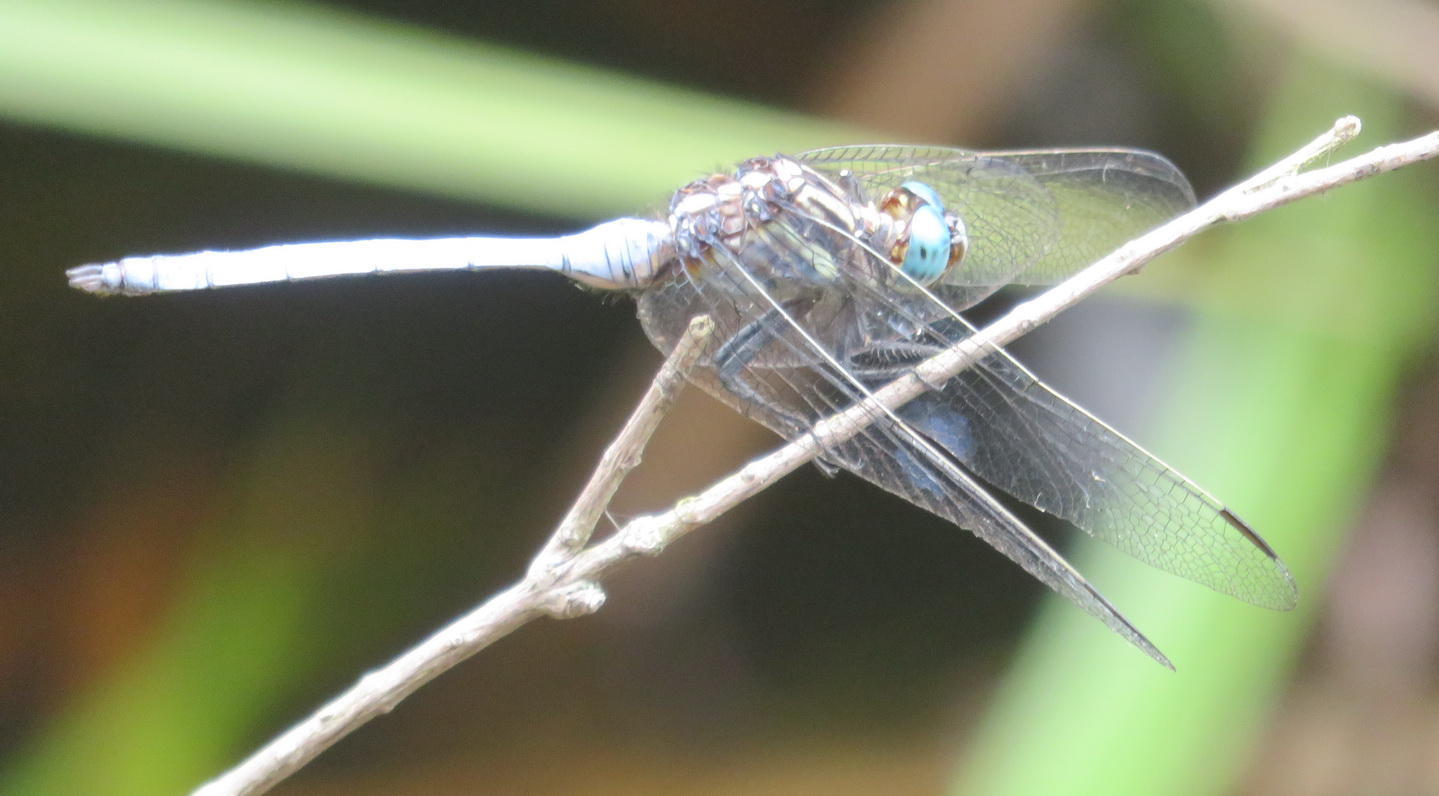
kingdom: Animalia
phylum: Arthropoda
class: Insecta
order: Odonata
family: Libellulidae
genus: Orthetrum
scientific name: Orthetrum julia
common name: Julia skimmer
